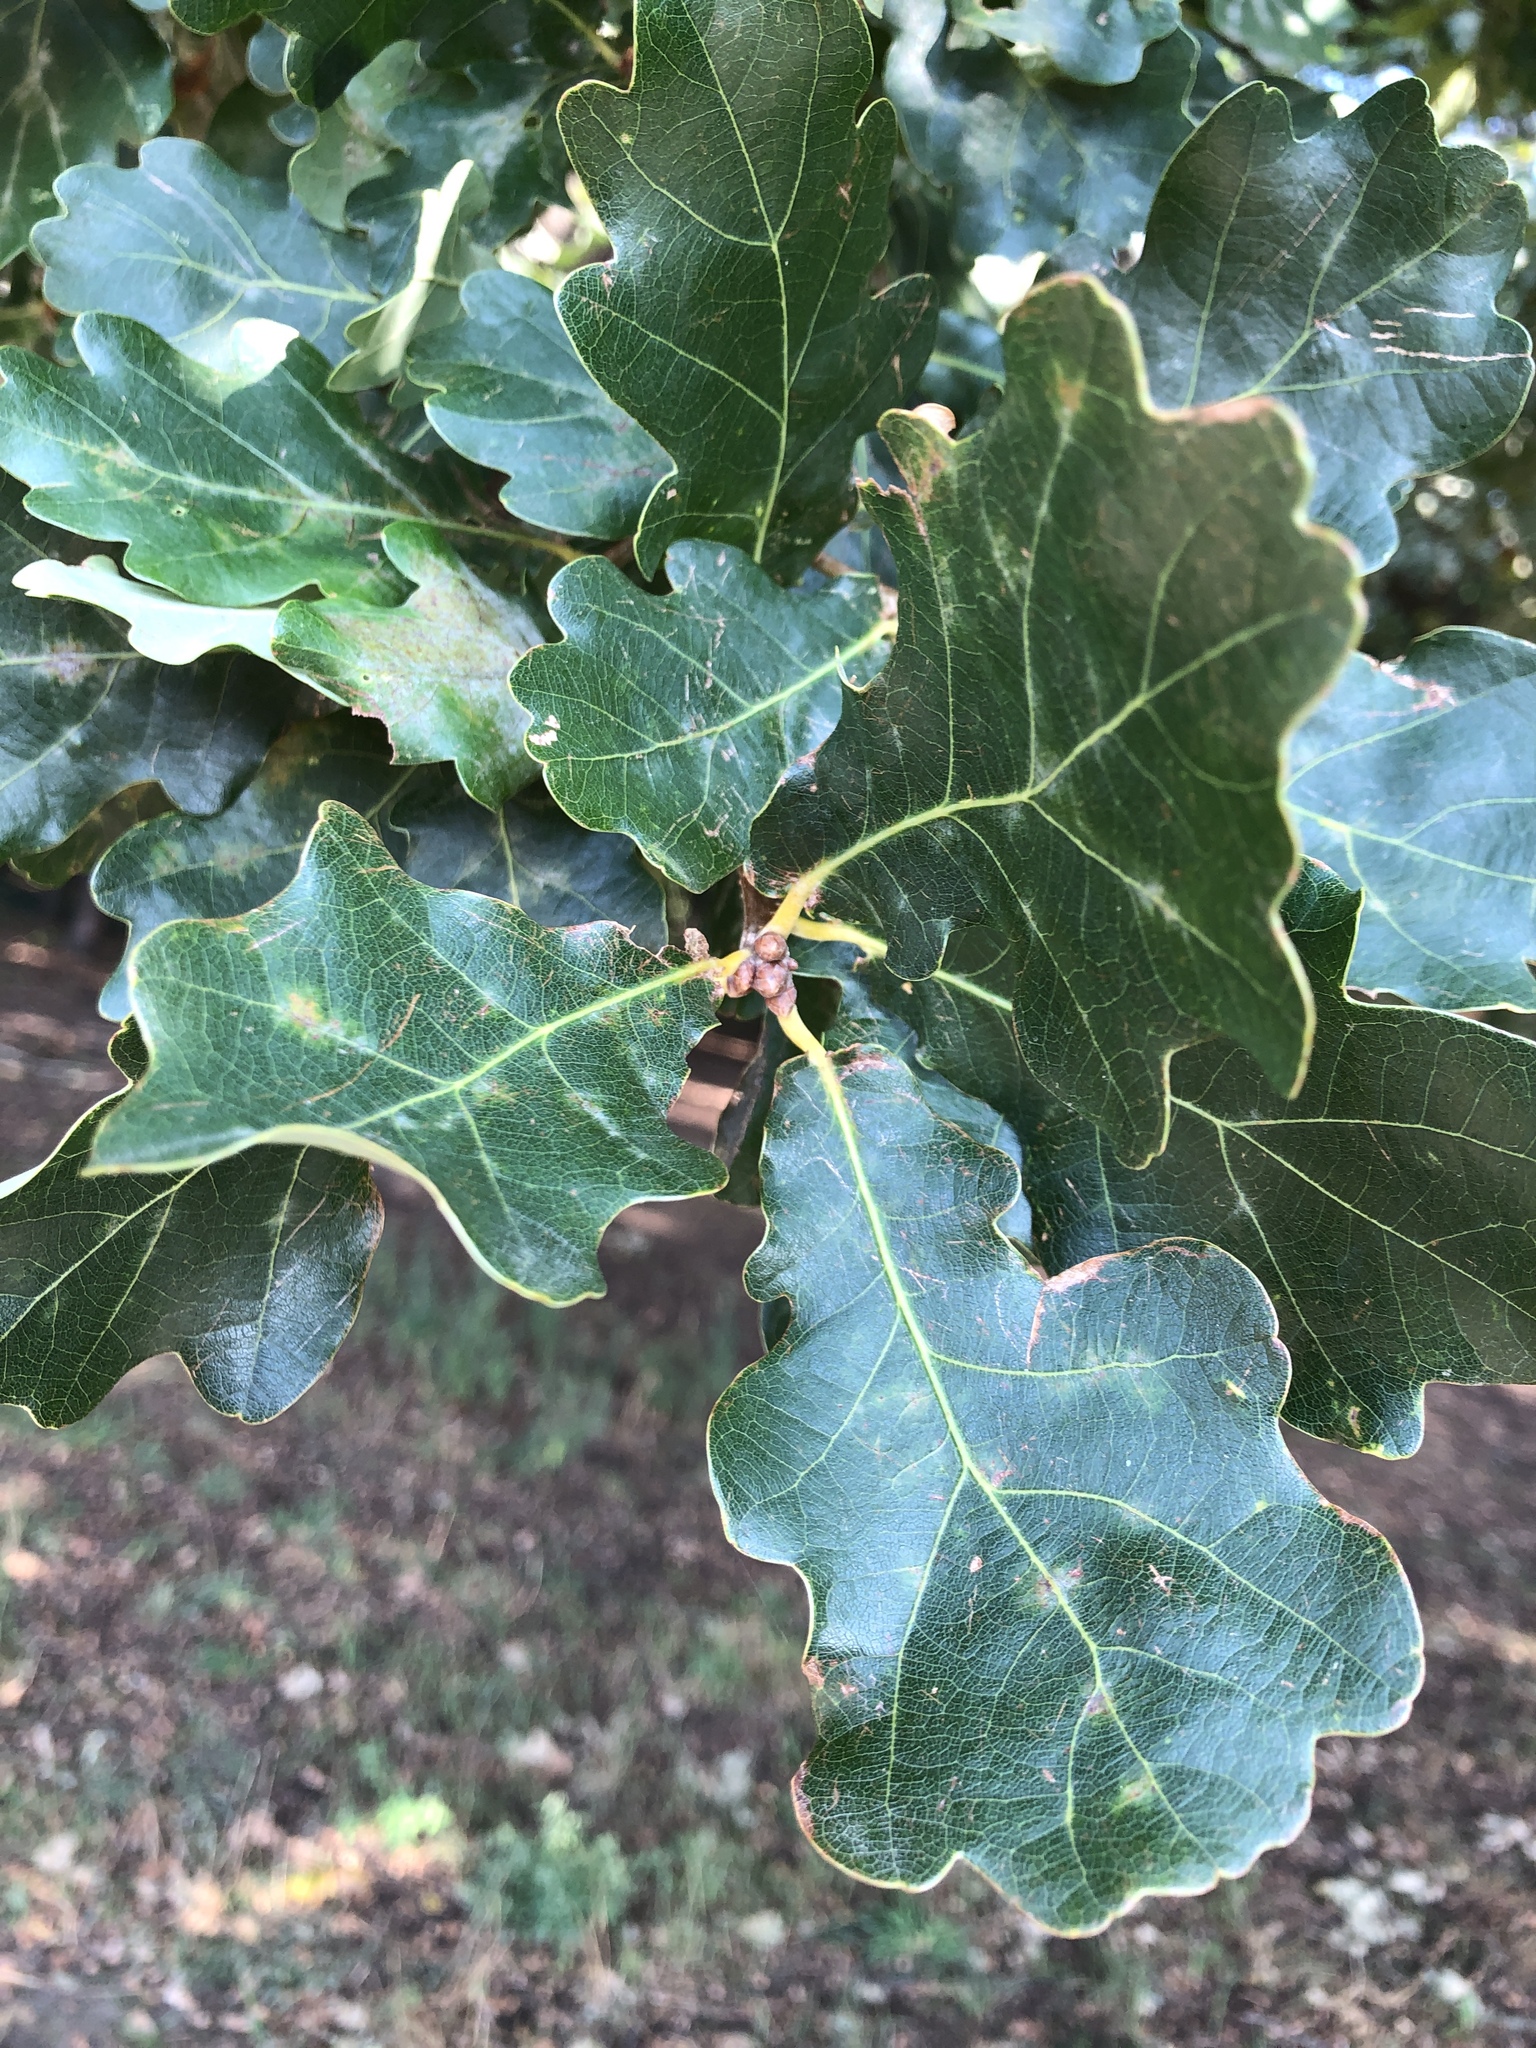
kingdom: Plantae
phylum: Tracheophyta
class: Magnoliopsida
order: Fagales
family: Fagaceae
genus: Quercus
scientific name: Quercus robur
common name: Pedunculate oak
